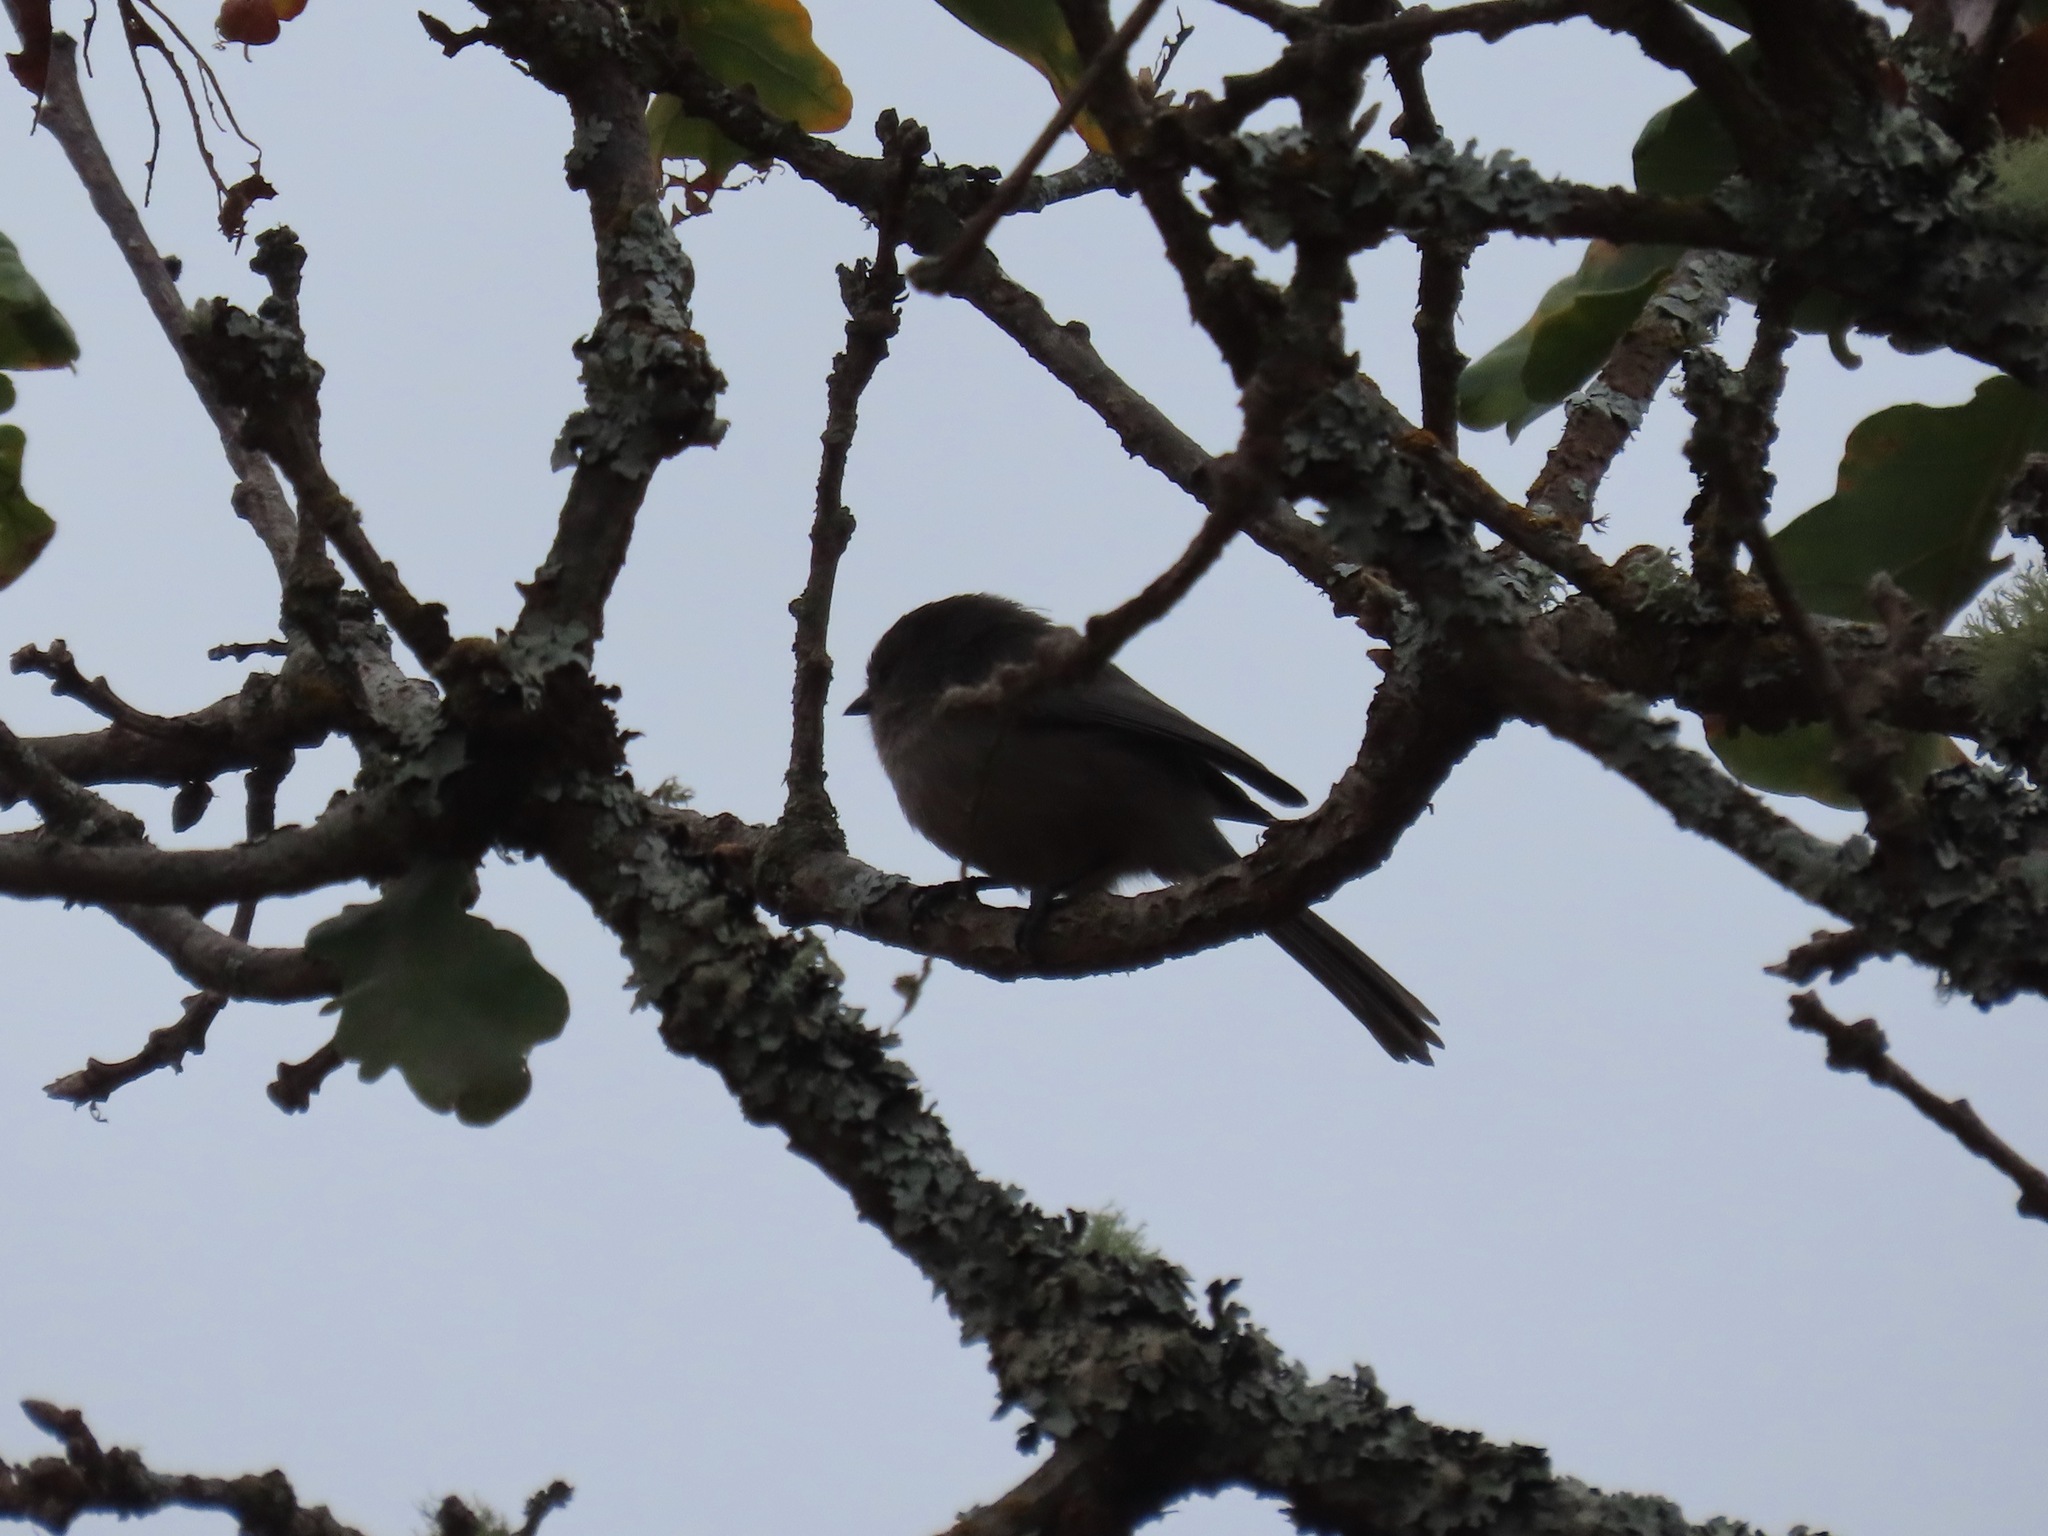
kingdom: Animalia
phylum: Chordata
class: Aves
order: Passeriformes
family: Aegithalidae
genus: Psaltriparus
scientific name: Psaltriparus minimus
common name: American bushtit
